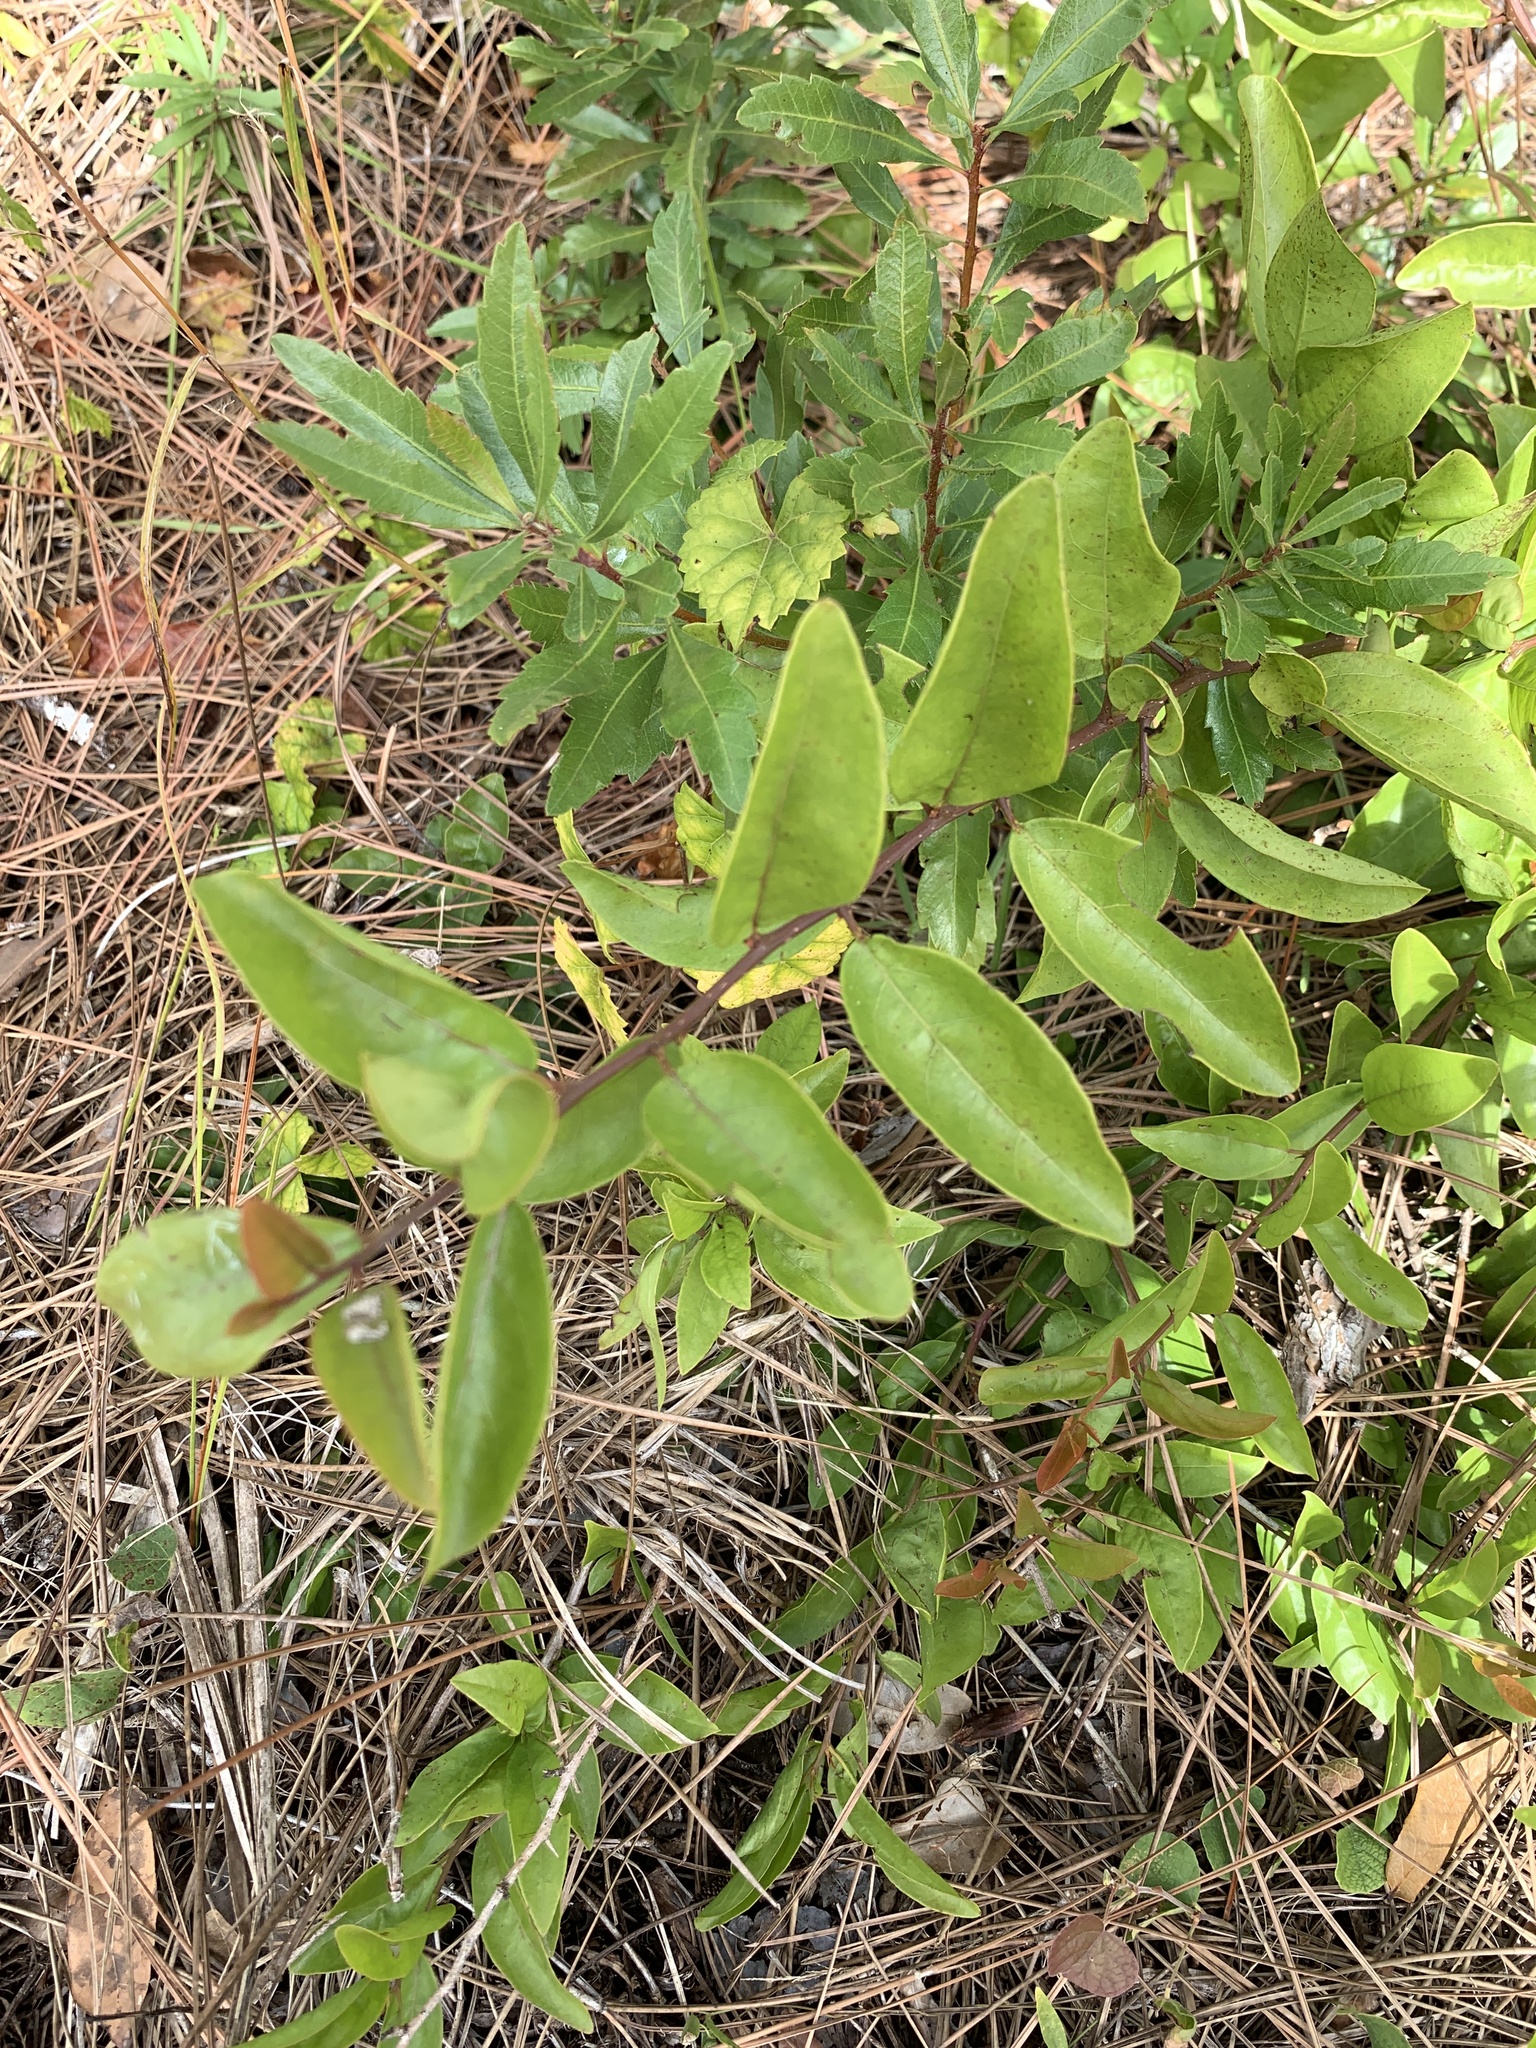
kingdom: Plantae
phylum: Tracheophyta
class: Magnoliopsida
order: Santalales
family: Ximeniaceae
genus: Ximenia
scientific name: Ximenia americana
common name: Tallowwood
